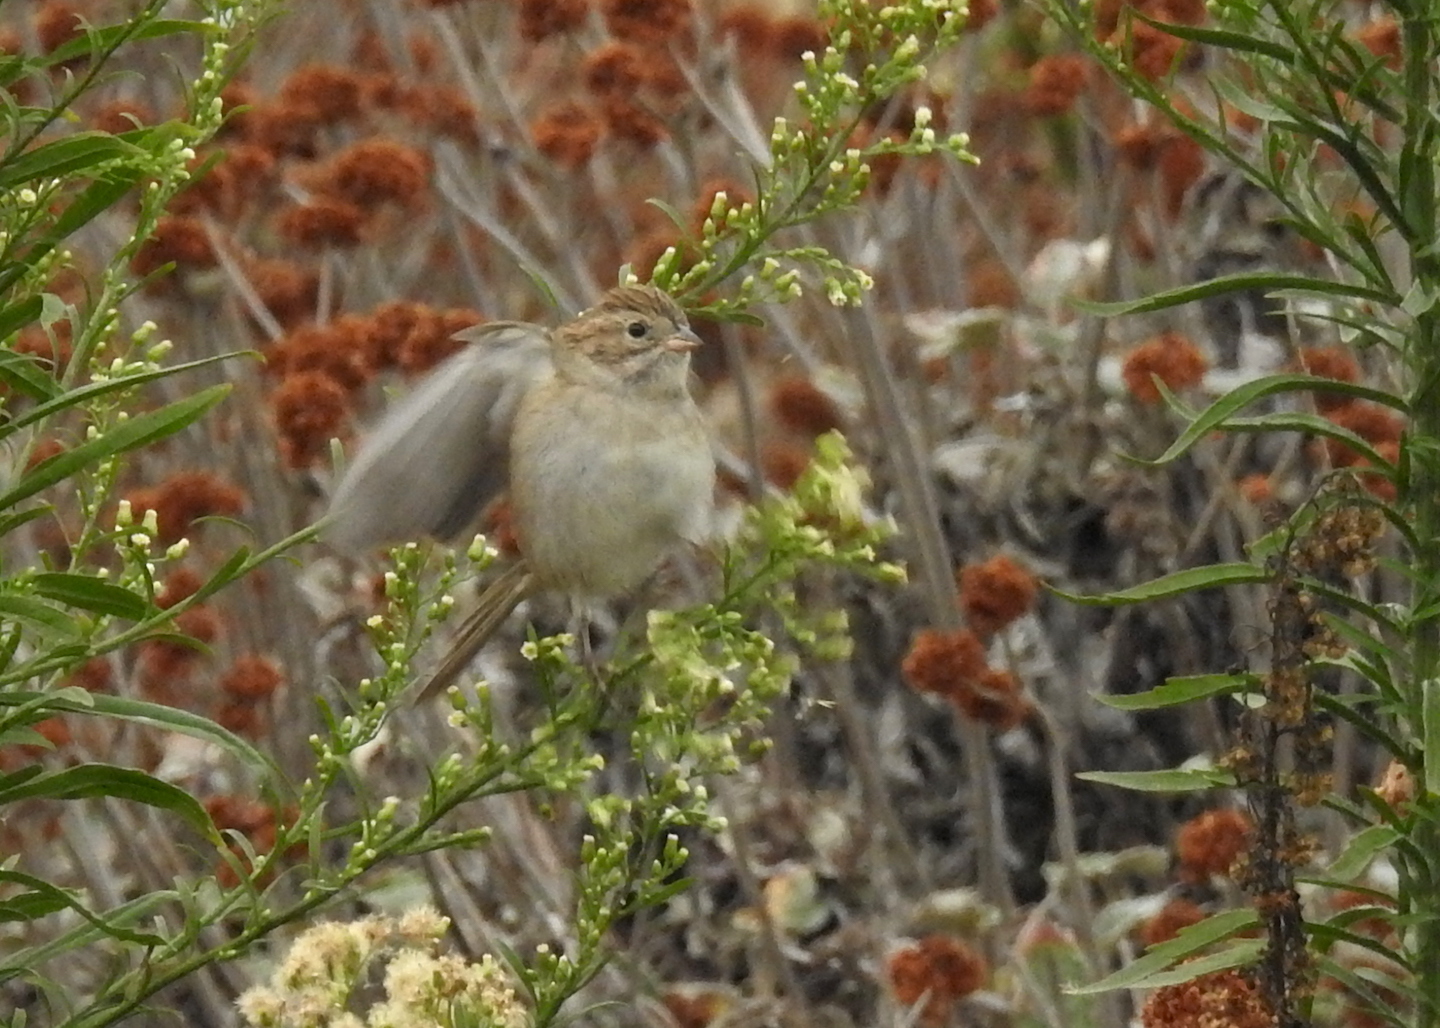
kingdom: Animalia
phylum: Chordata
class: Aves
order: Passeriformes
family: Passerellidae
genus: Spizella
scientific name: Spizella breweri
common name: Brewer's sparrow
